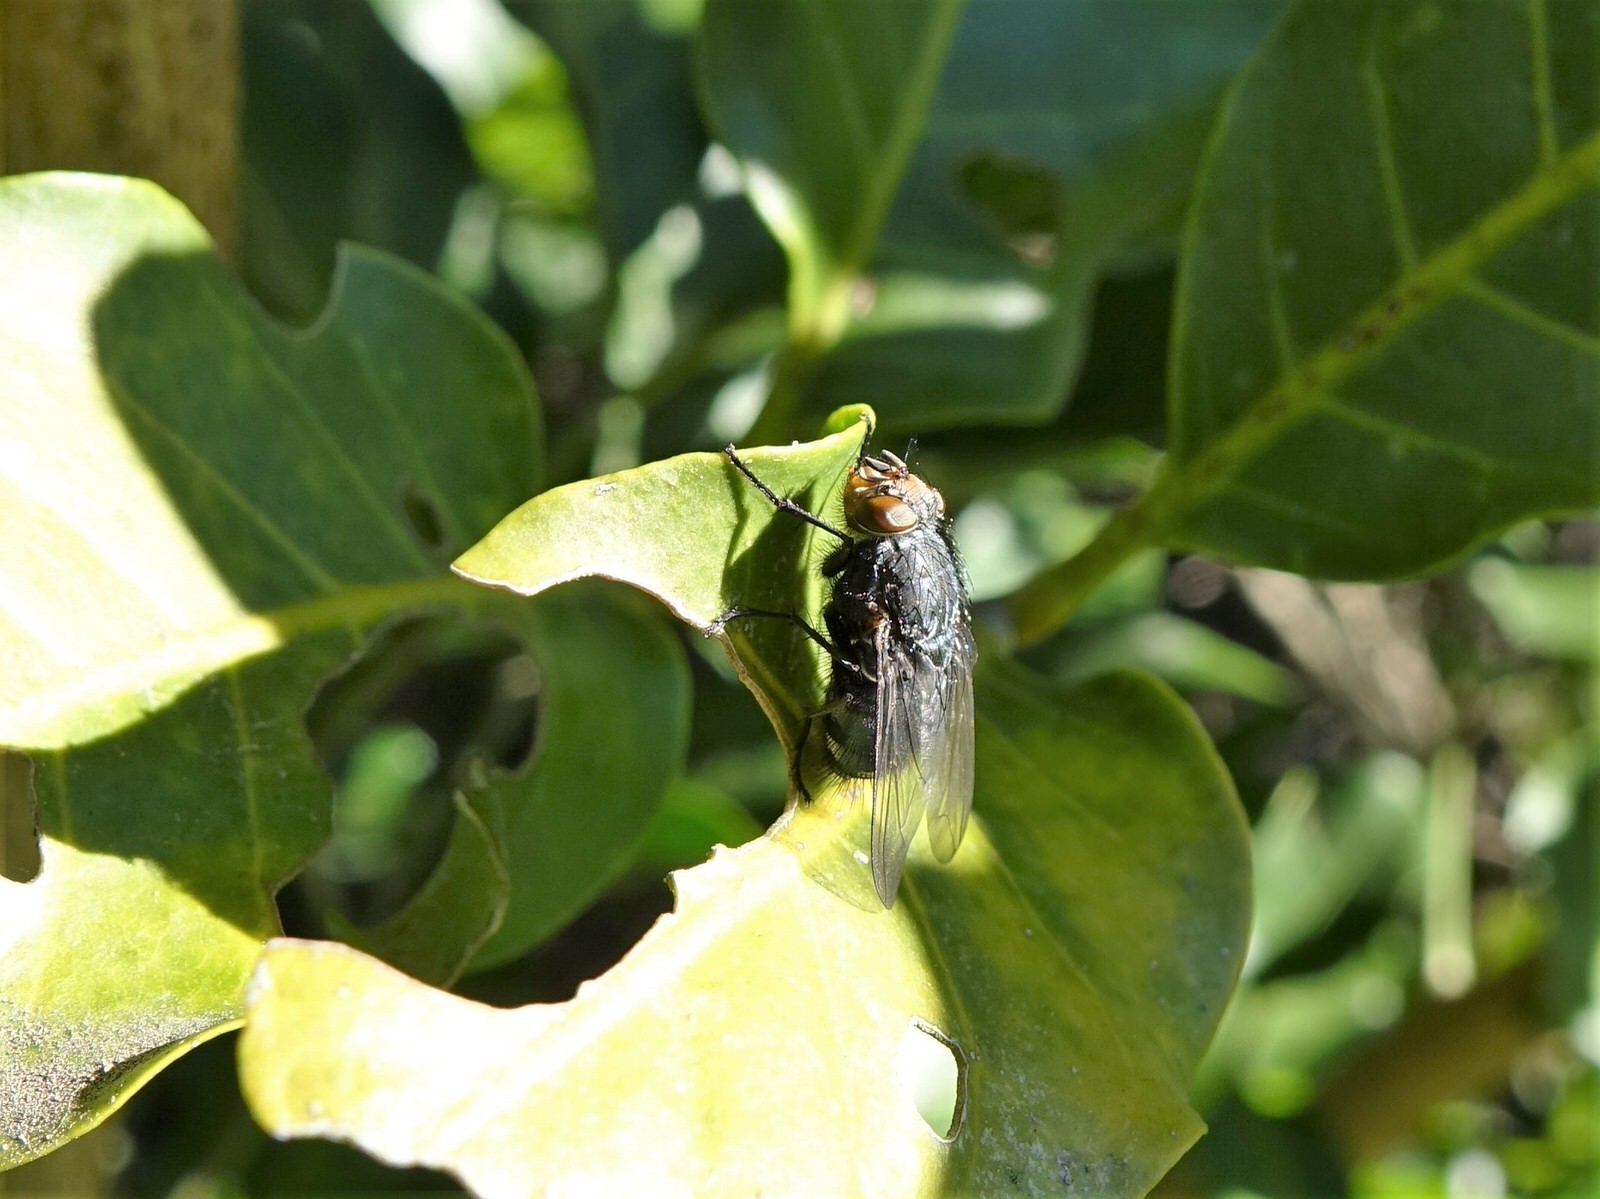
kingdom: Animalia
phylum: Arthropoda
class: Insecta
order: Diptera
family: Calliphoridae
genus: Calliphora
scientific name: Calliphora vicina
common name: Common blow flie
